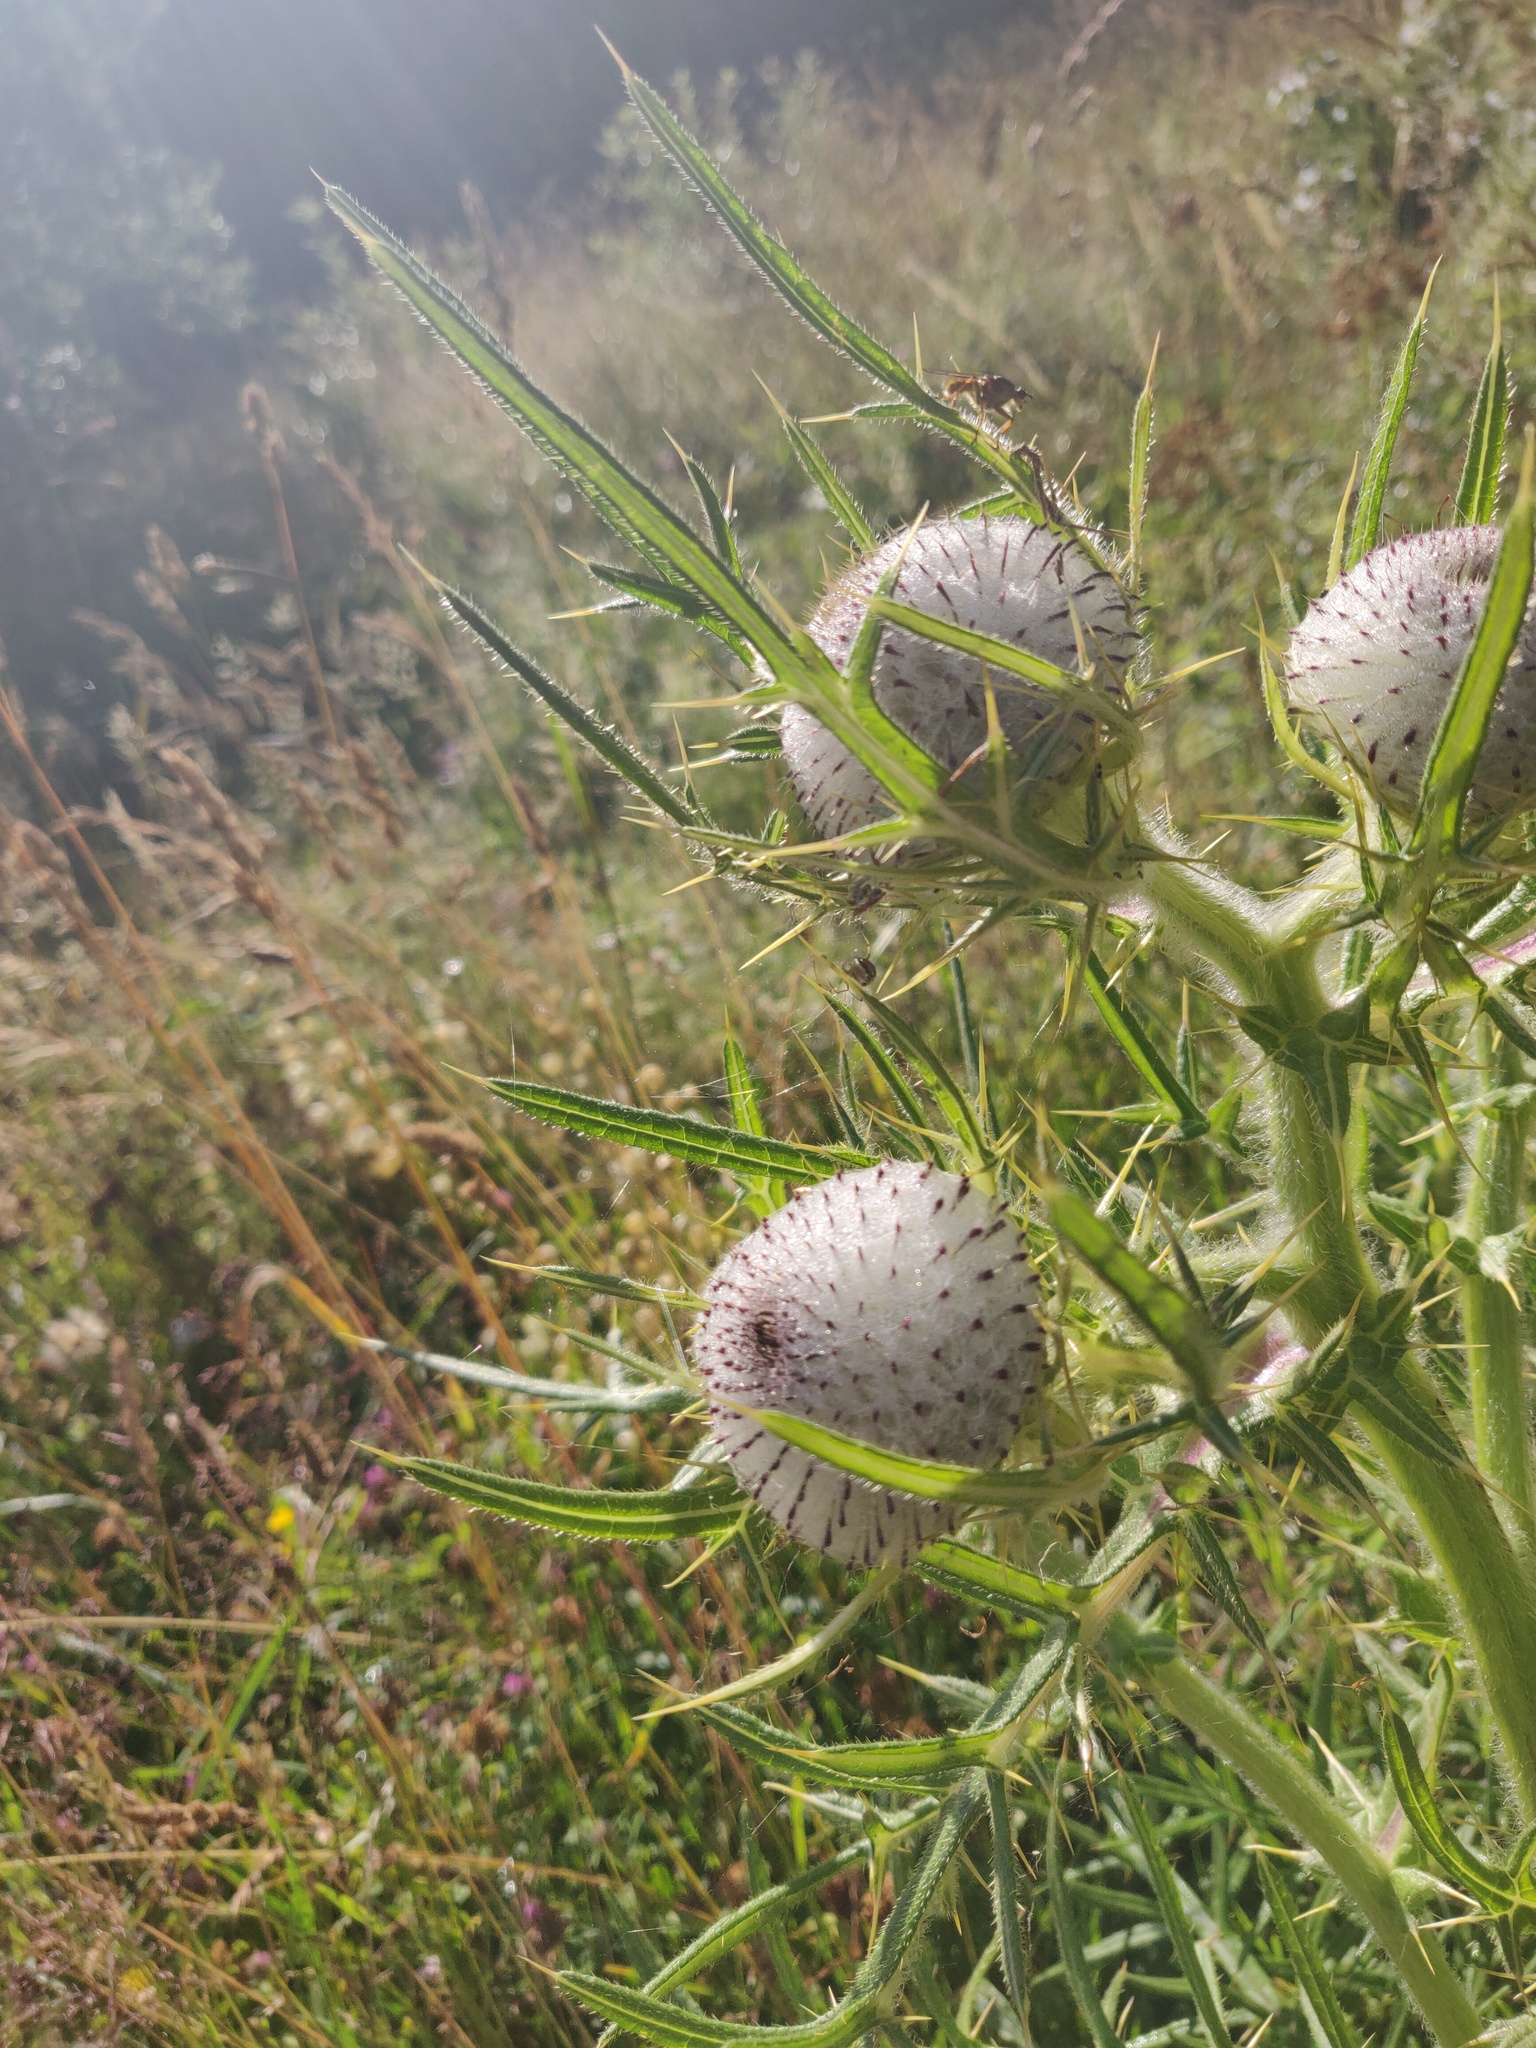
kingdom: Plantae
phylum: Tracheophyta
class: Magnoliopsida
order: Asterales
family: Asteraceae
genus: Lophiolepis
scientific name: Lophiolepis eriophora
